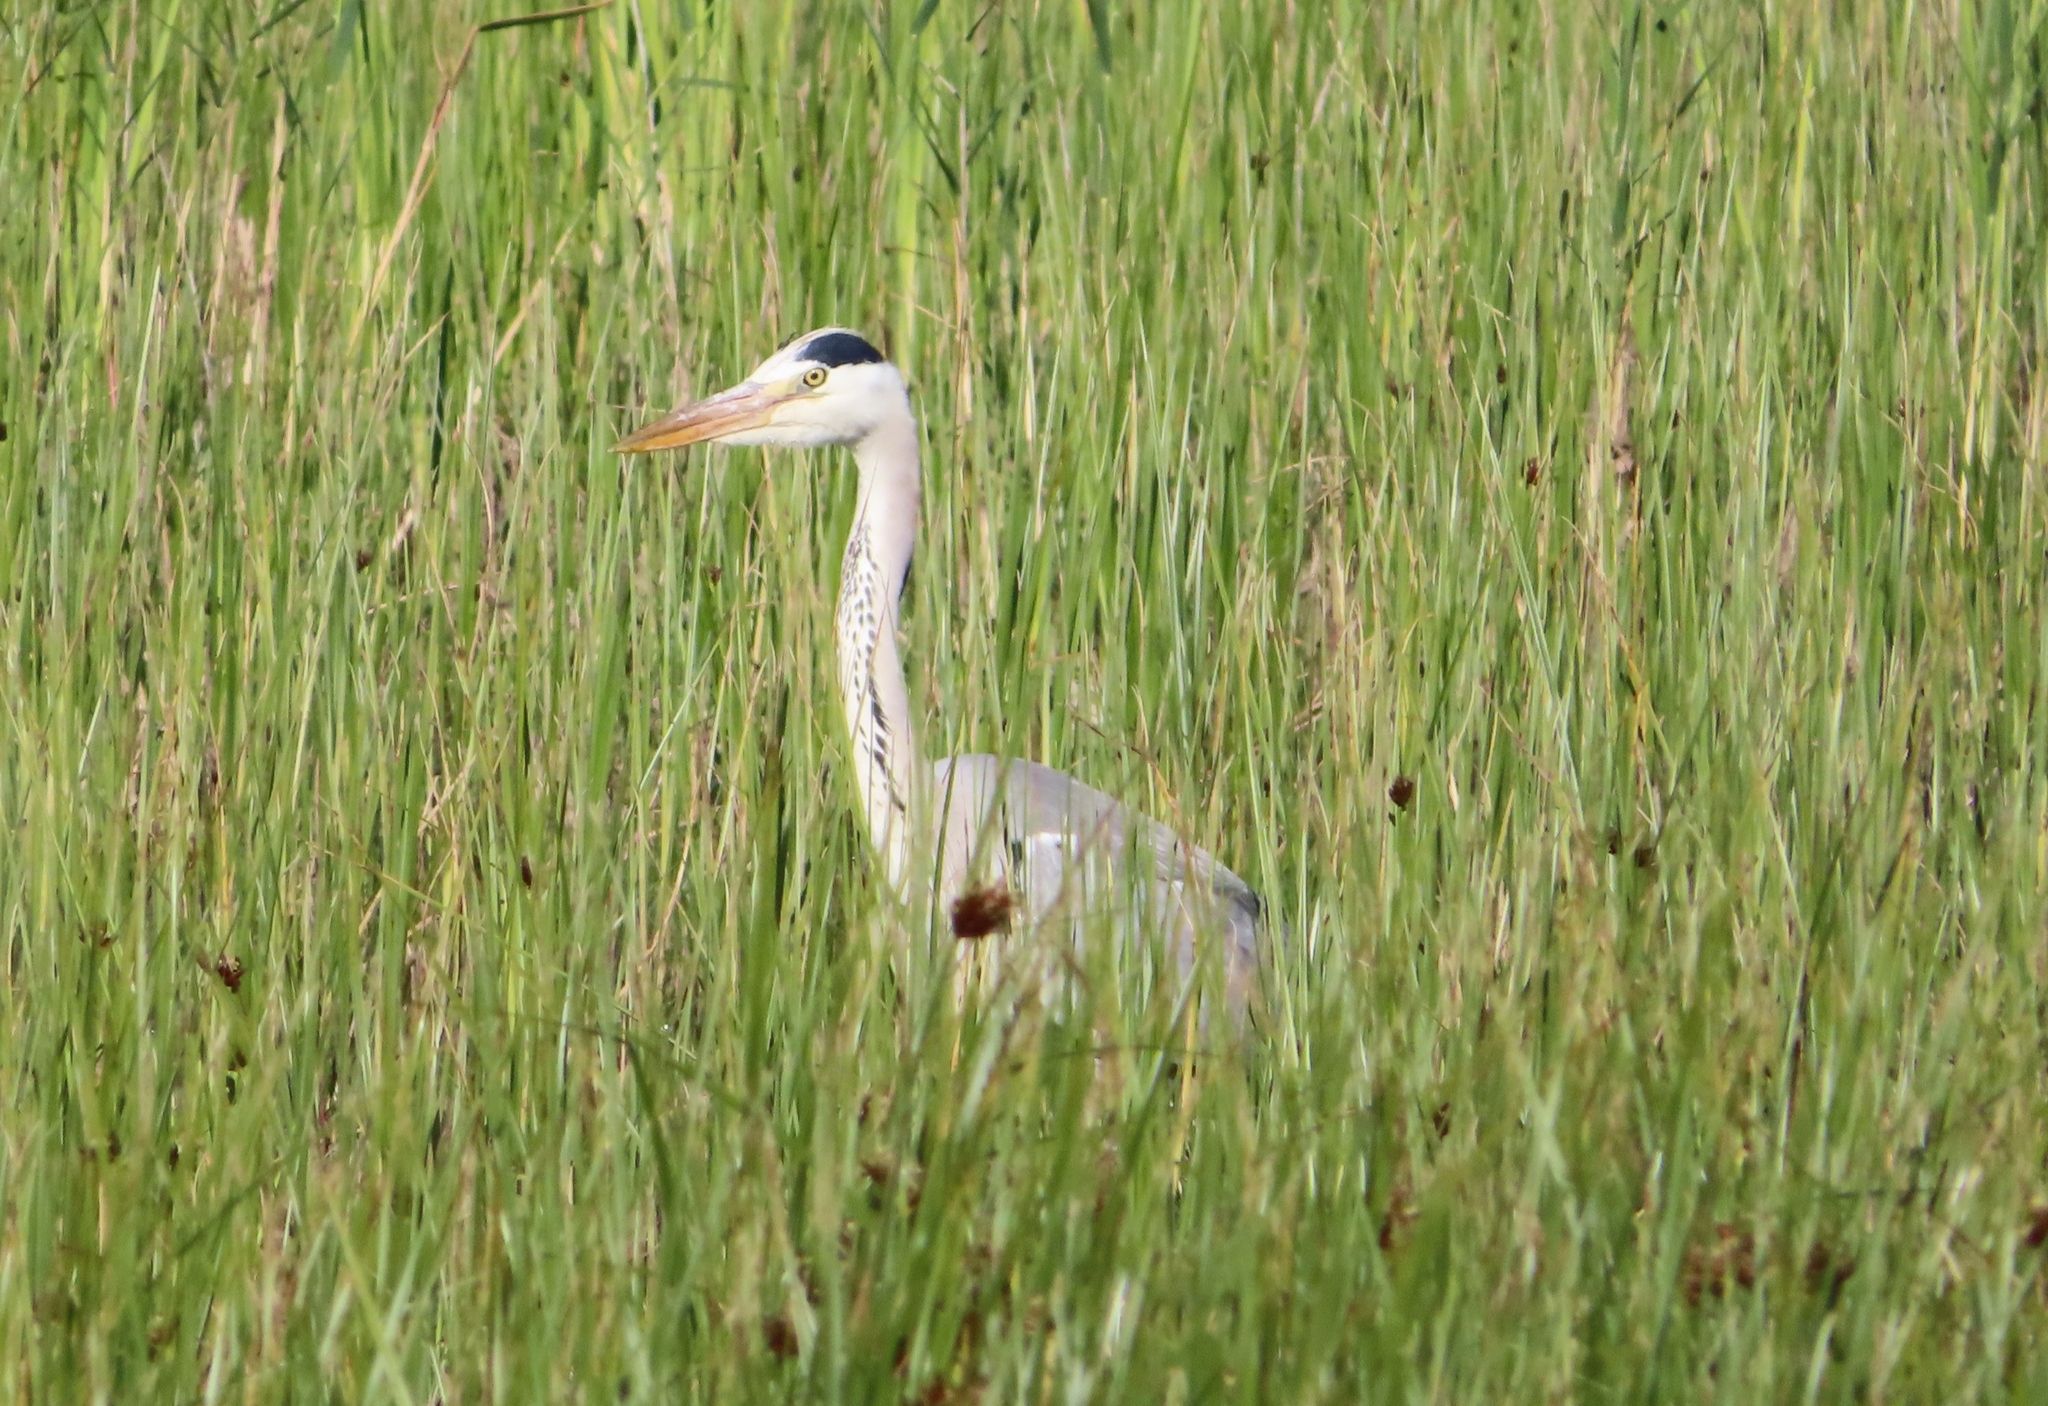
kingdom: Animalia
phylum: Chordata
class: Aves
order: Pelecaniformes
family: Ardeidae
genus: Ardea
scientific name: Ardea cinerea
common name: Grey heron
